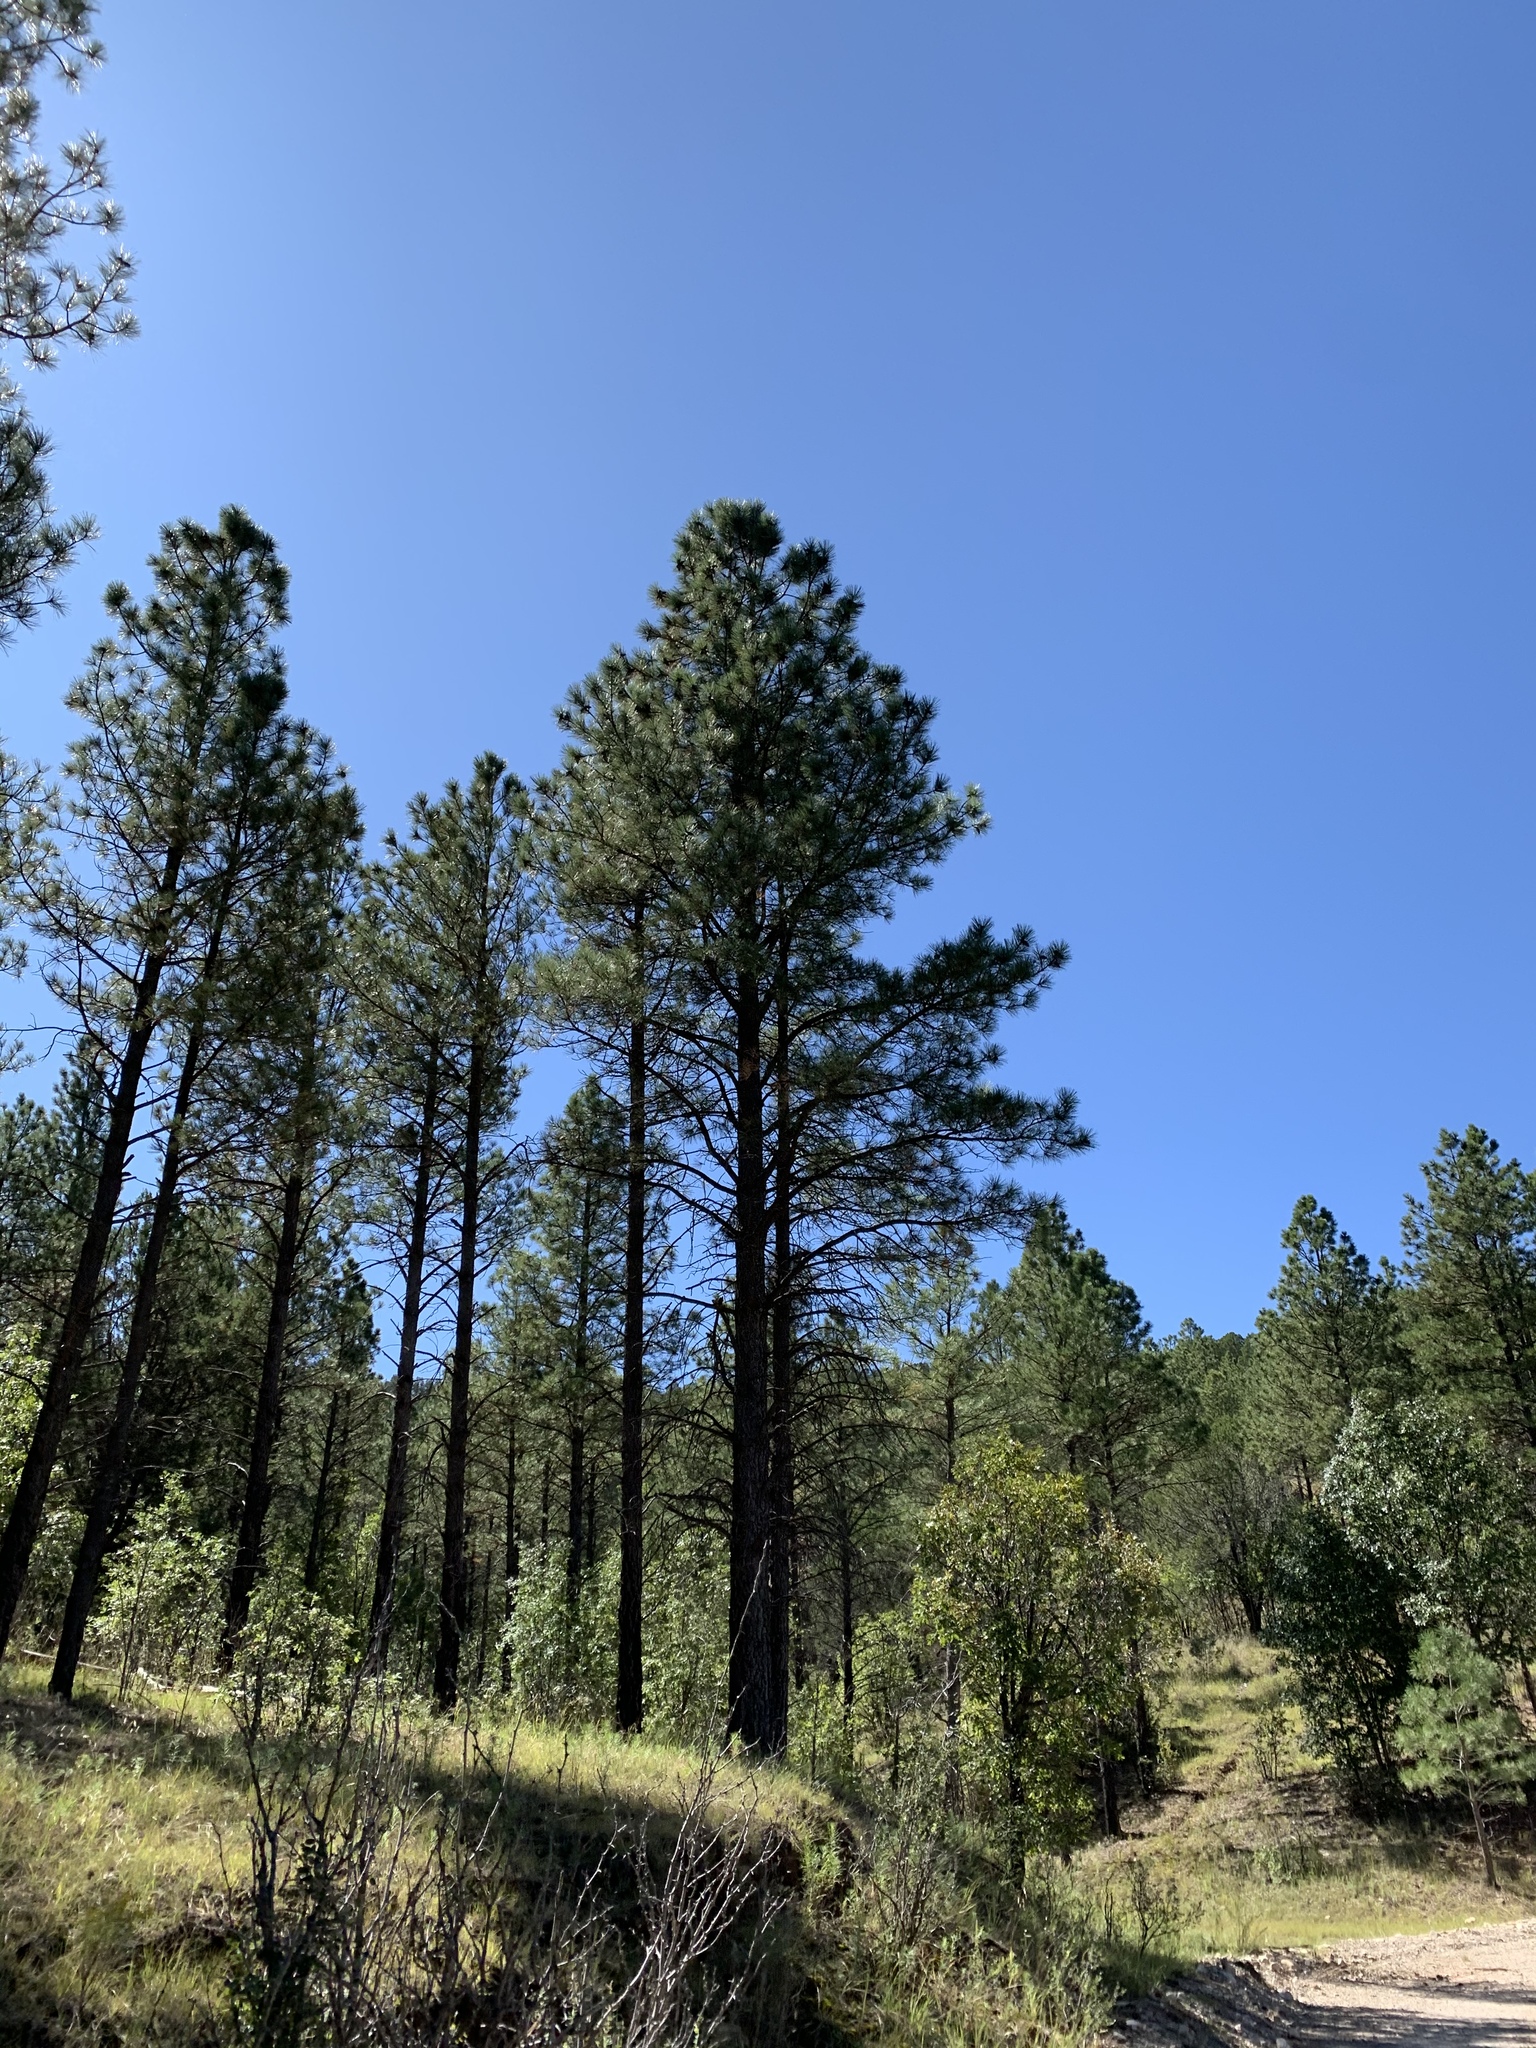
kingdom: Plantae
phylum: Tracheophyta
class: Pinopsida
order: Pinales
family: Pinaceae
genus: Pinus
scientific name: Pinus ponderosa
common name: Western yellow-pine
